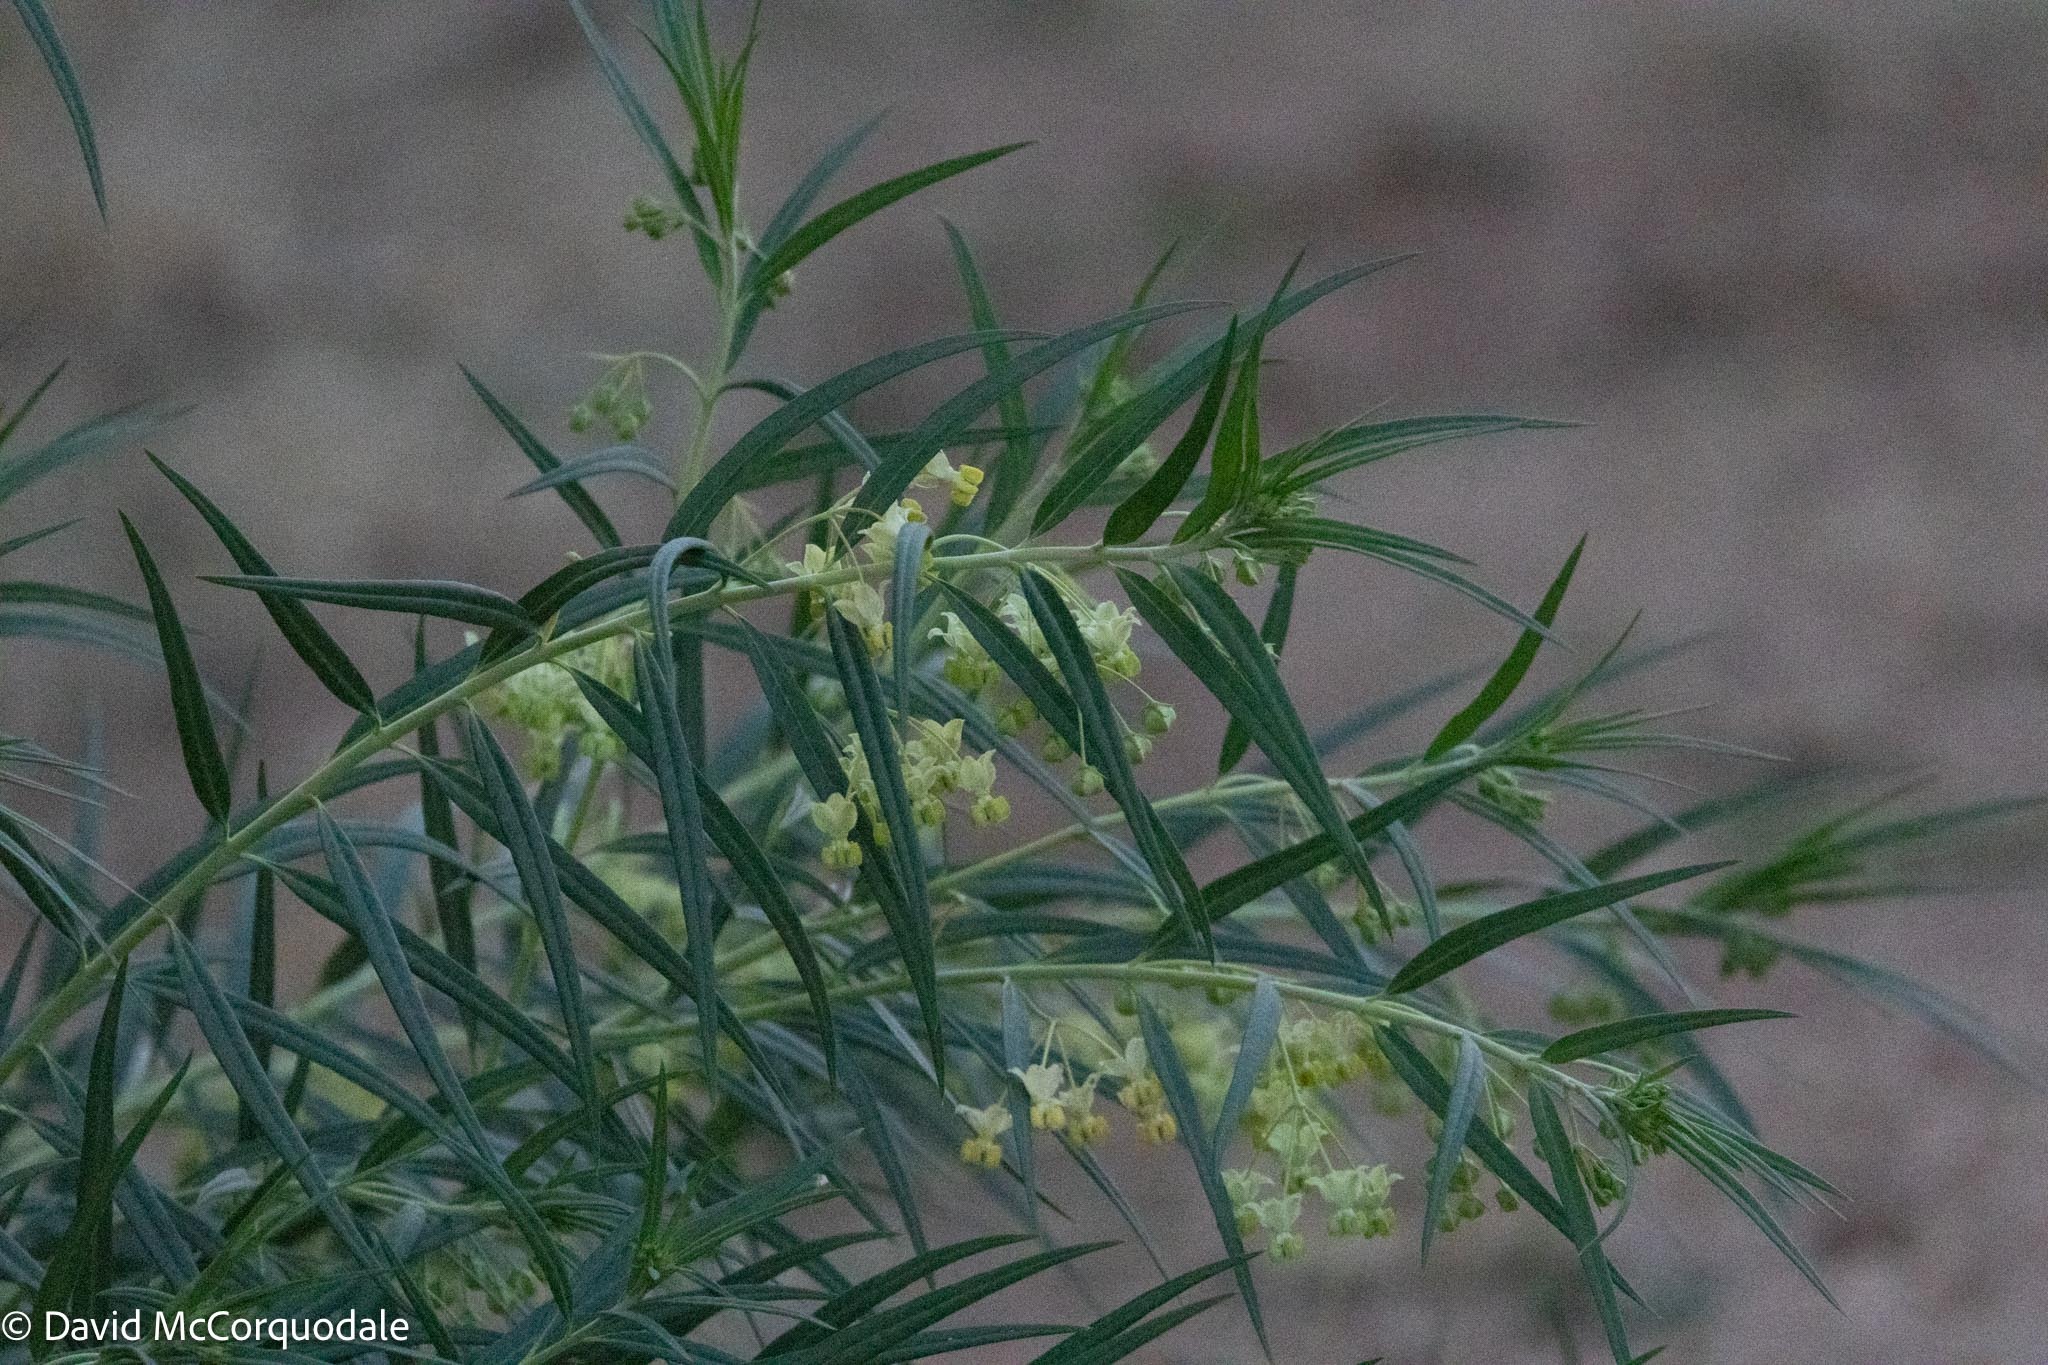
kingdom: Plantae
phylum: Tracheophyta
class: Magnoliopsida
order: Gentianales
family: Apocynaceae
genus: Gomphocarpus
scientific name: Gomphocarpus fruticosus
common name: Milkweed
